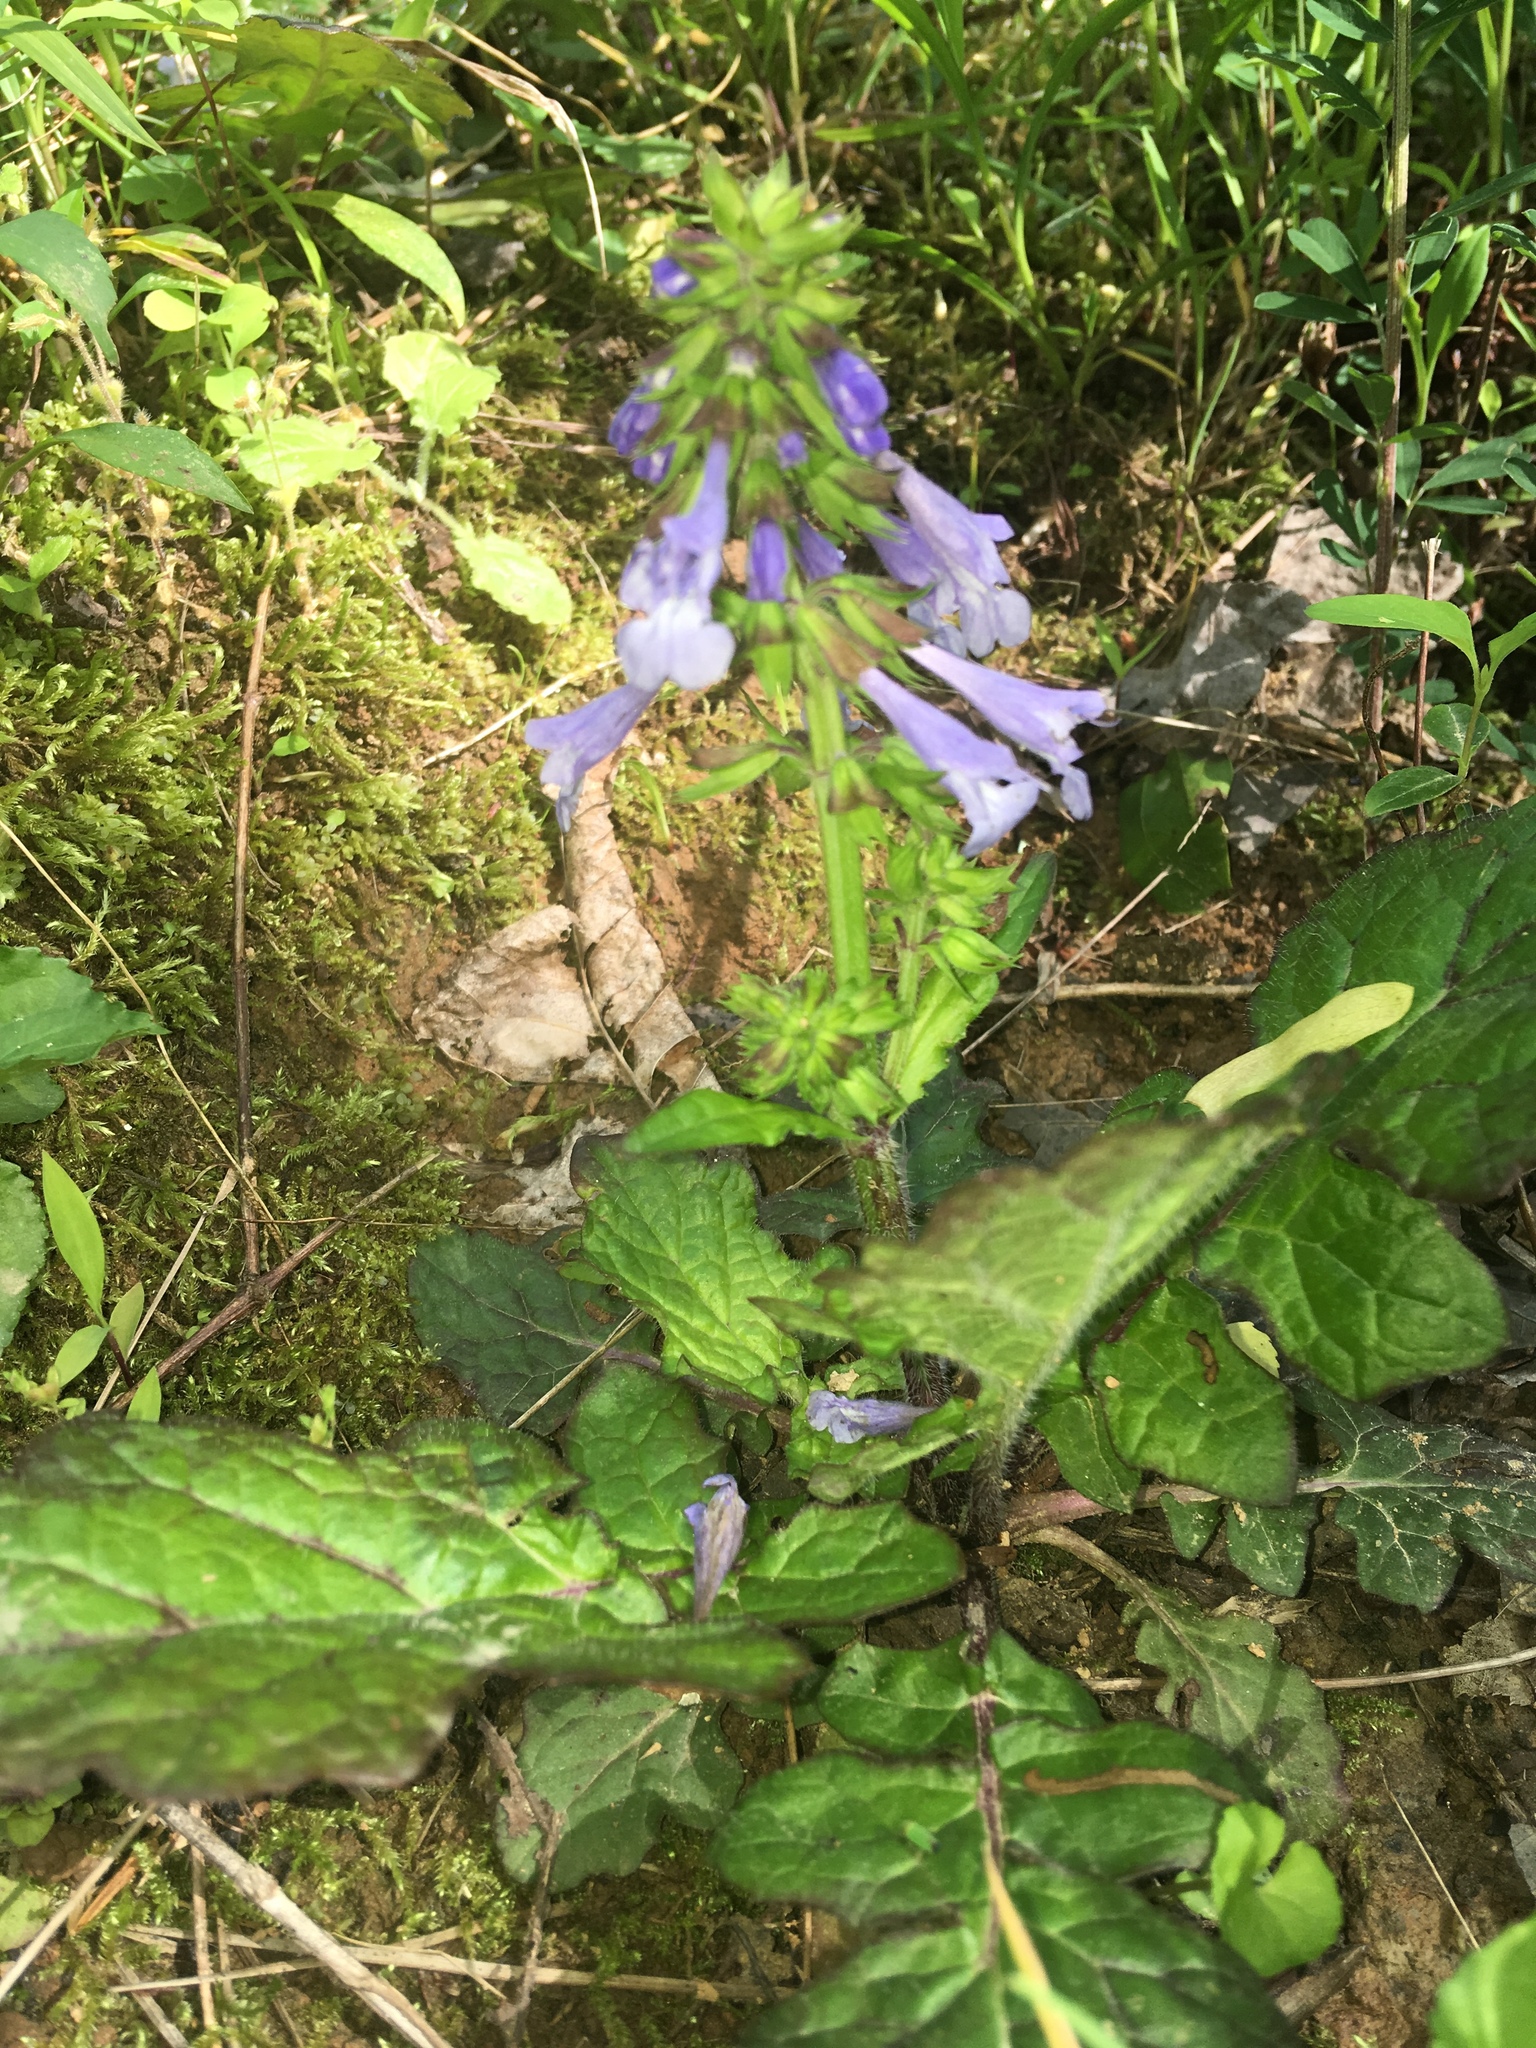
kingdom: Plantae
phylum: Tracheophyta
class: Magnoliopsida
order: Lamiales
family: Lamiaceae
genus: Salvia
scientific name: Salvia lyrata
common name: Cancerweed
